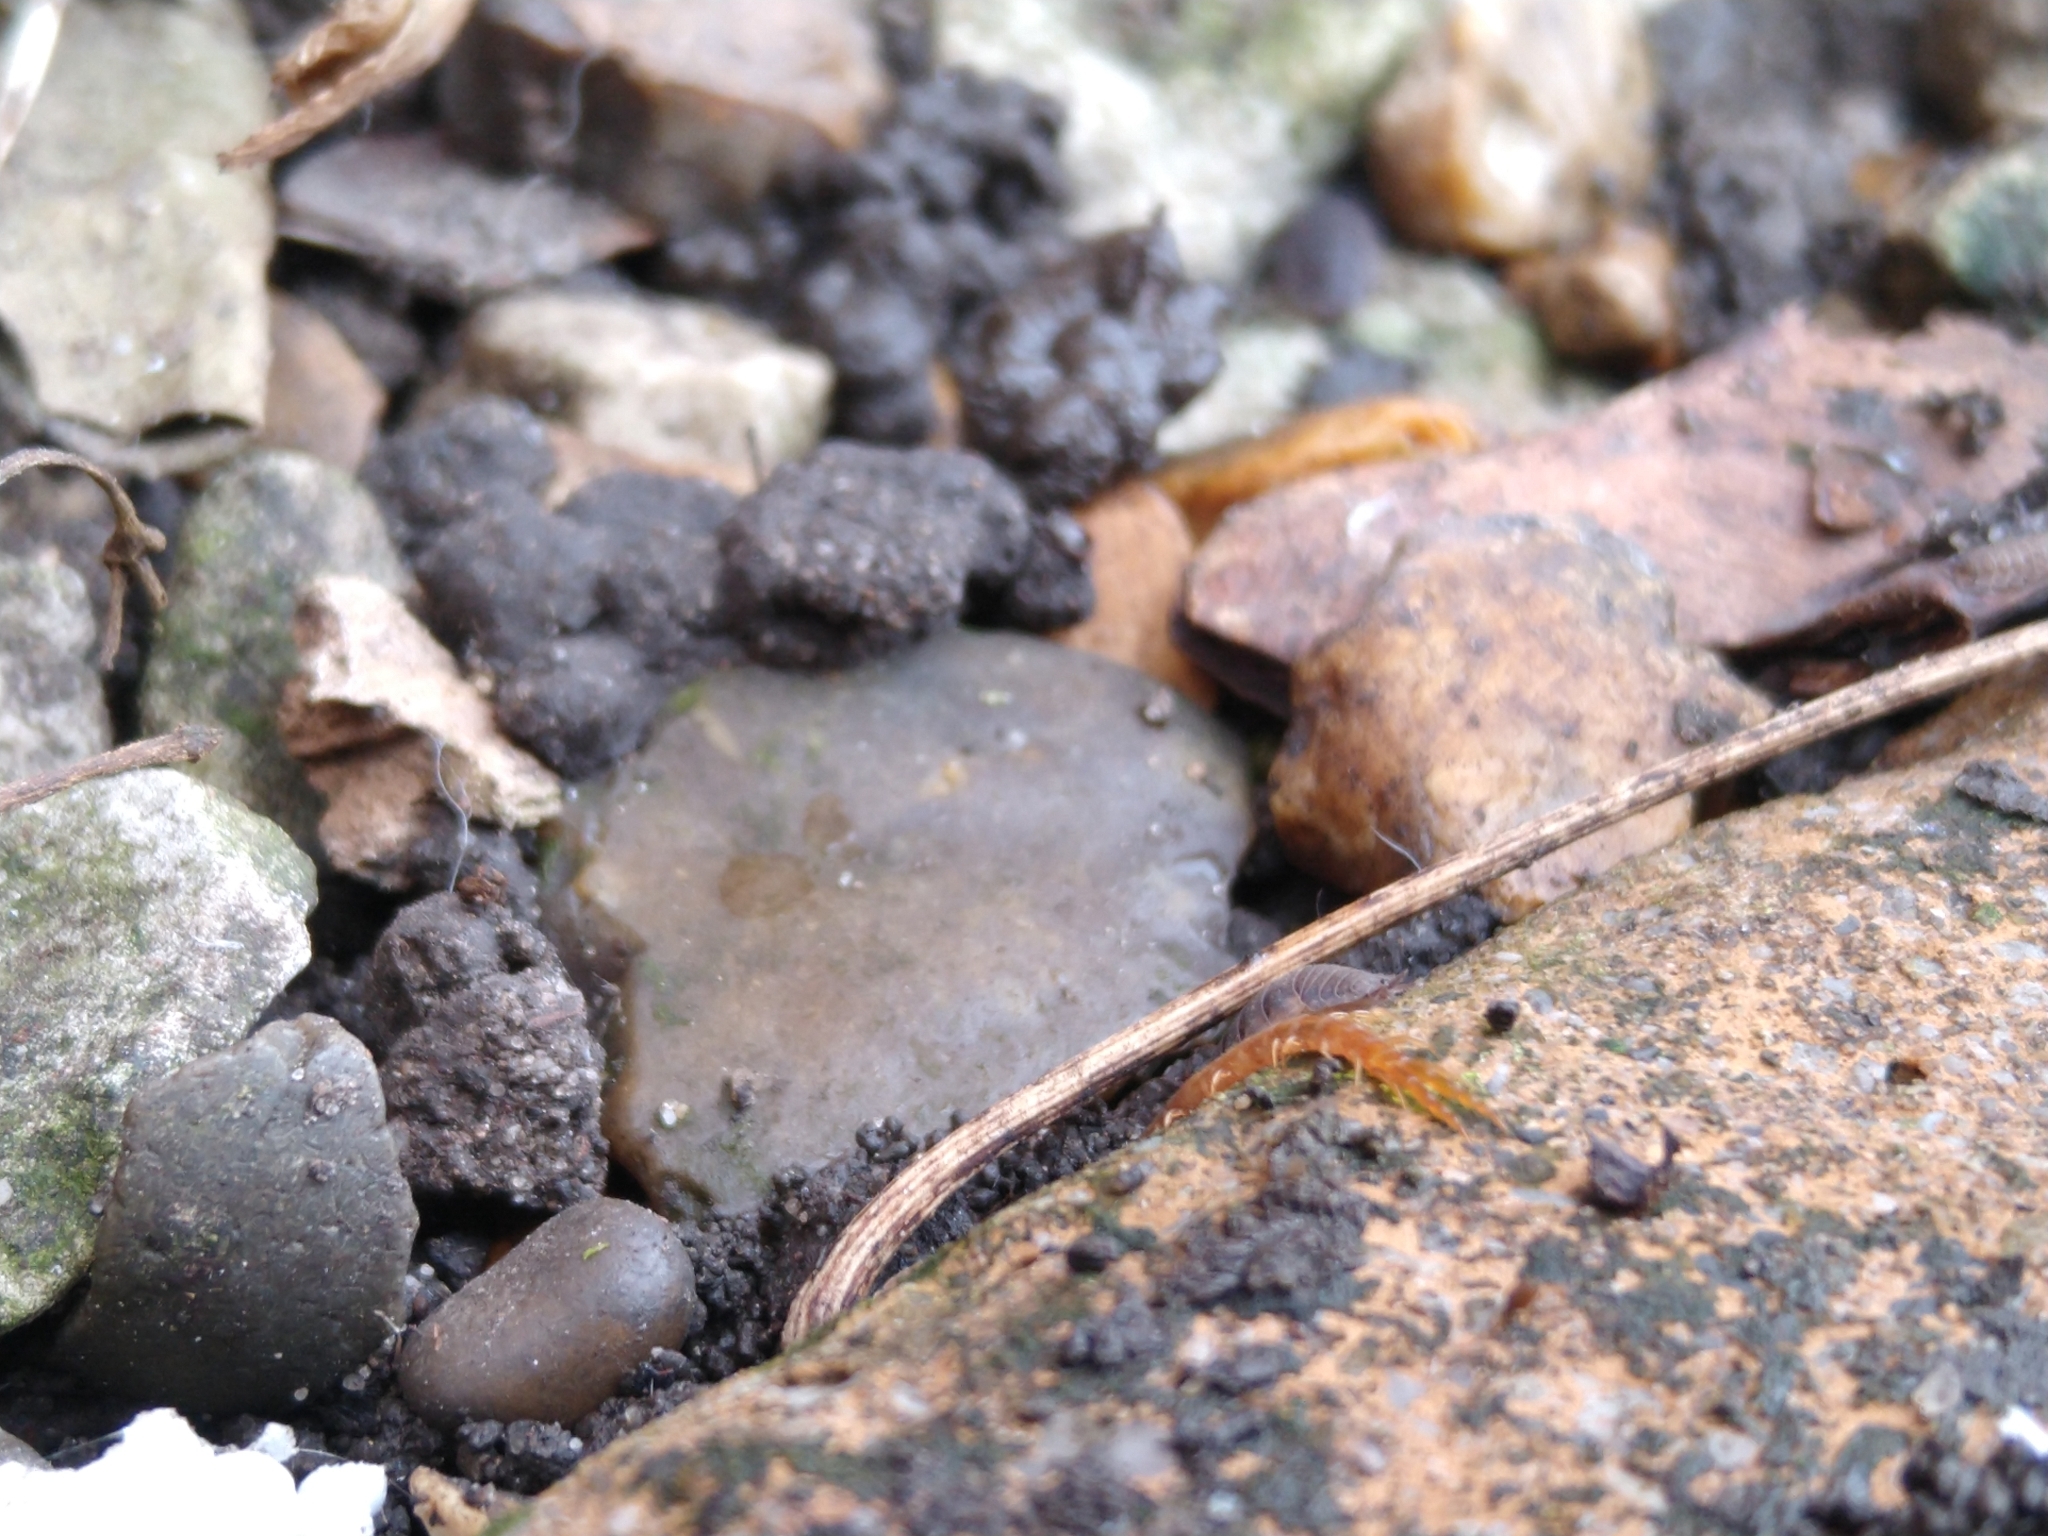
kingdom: Animalia
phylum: Arthropoda
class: Chilopoda
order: Scolopendromorpha
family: Cryptopidae
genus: Cryptops
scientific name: Cryptops
